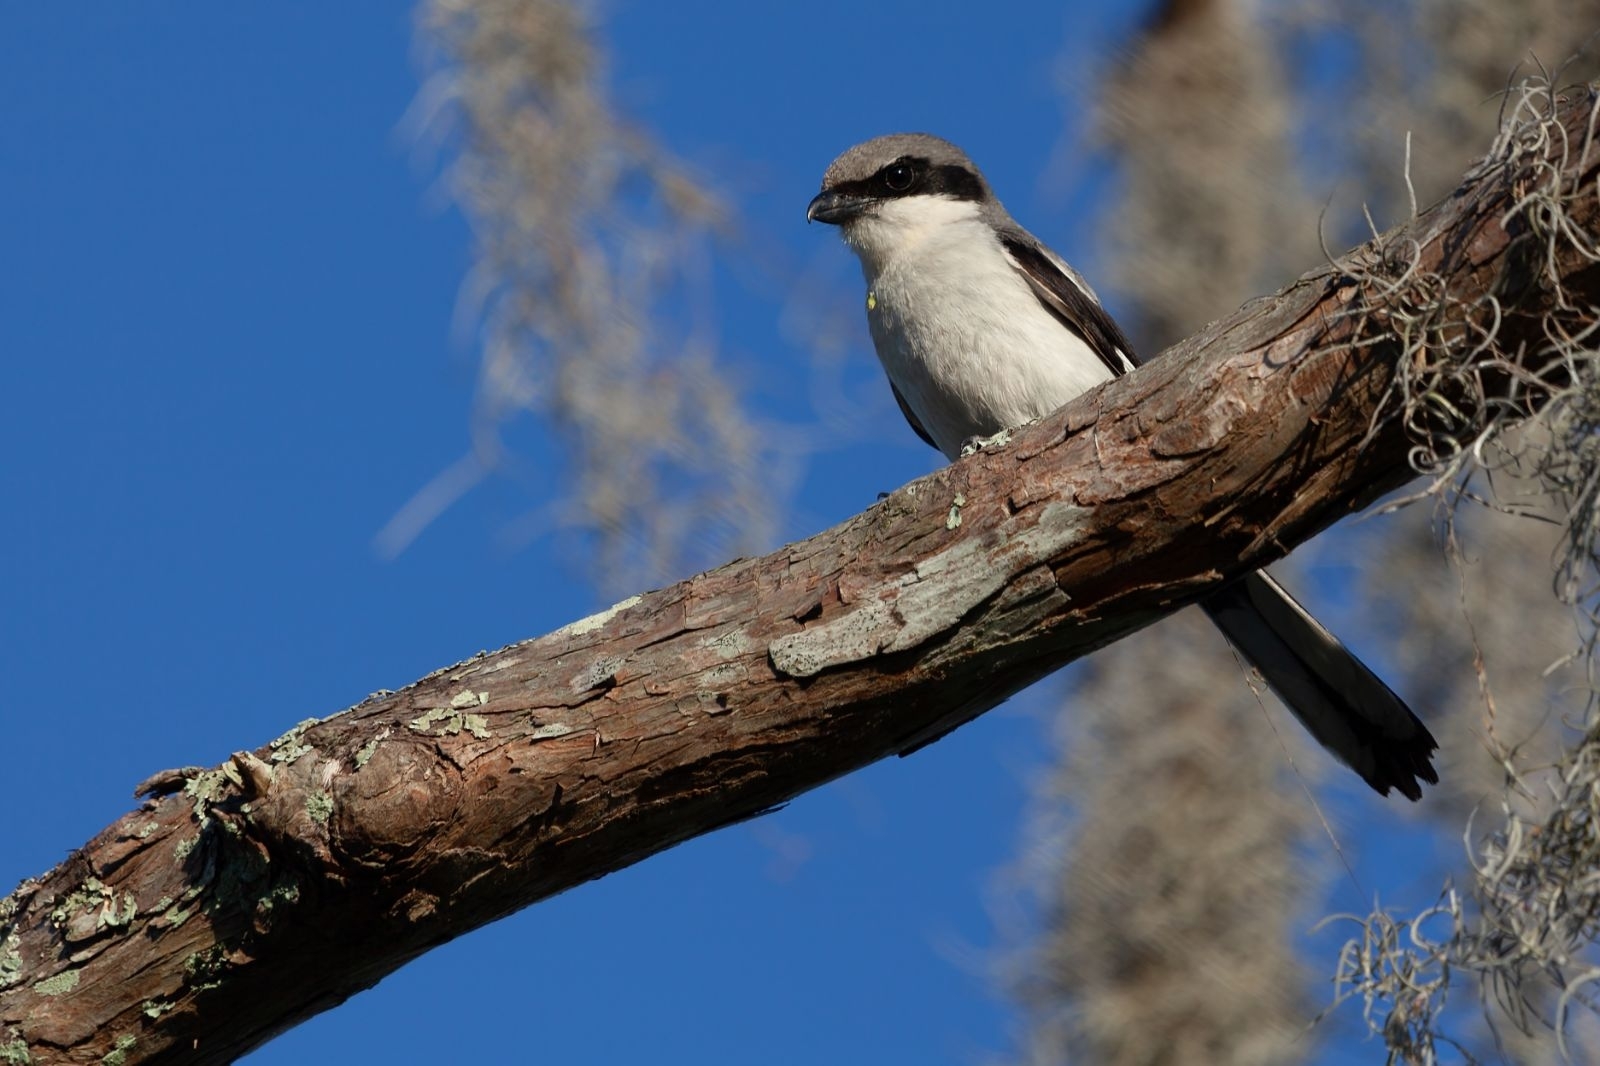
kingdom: Animalia
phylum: Chordata
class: Aves
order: Passeriformes
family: Laniidae
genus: Lanius
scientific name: Lanius ludovicianus
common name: Loggerhead shrike
